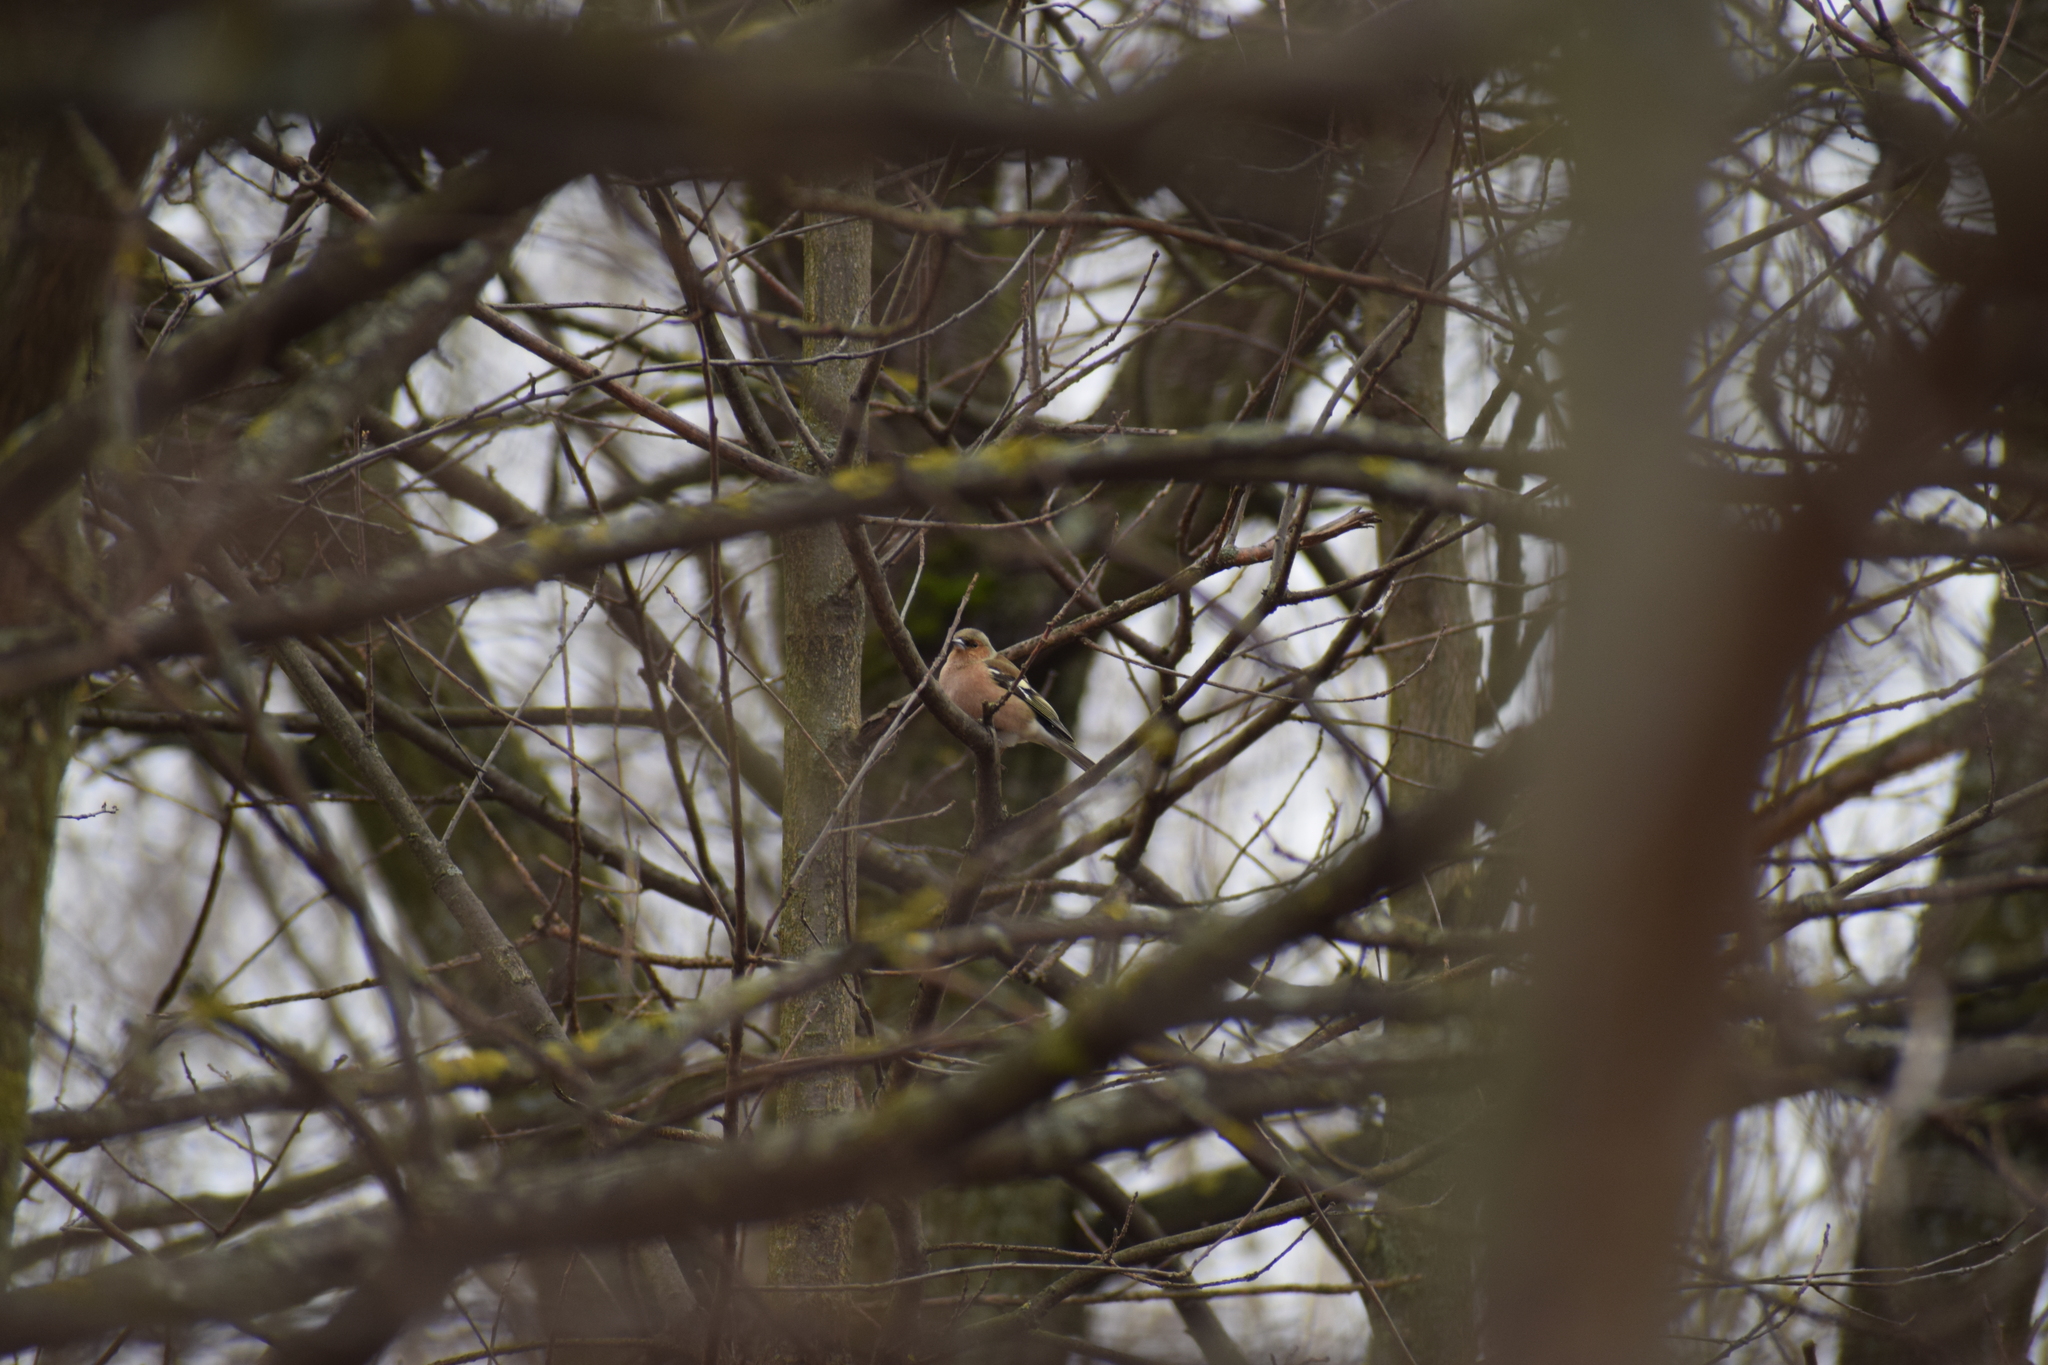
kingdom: Animalia
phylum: Chordata
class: Aves
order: Passeriformes
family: Fringillidae
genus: Fringilla
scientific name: Fringilla coelebs
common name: Common chaffinch
